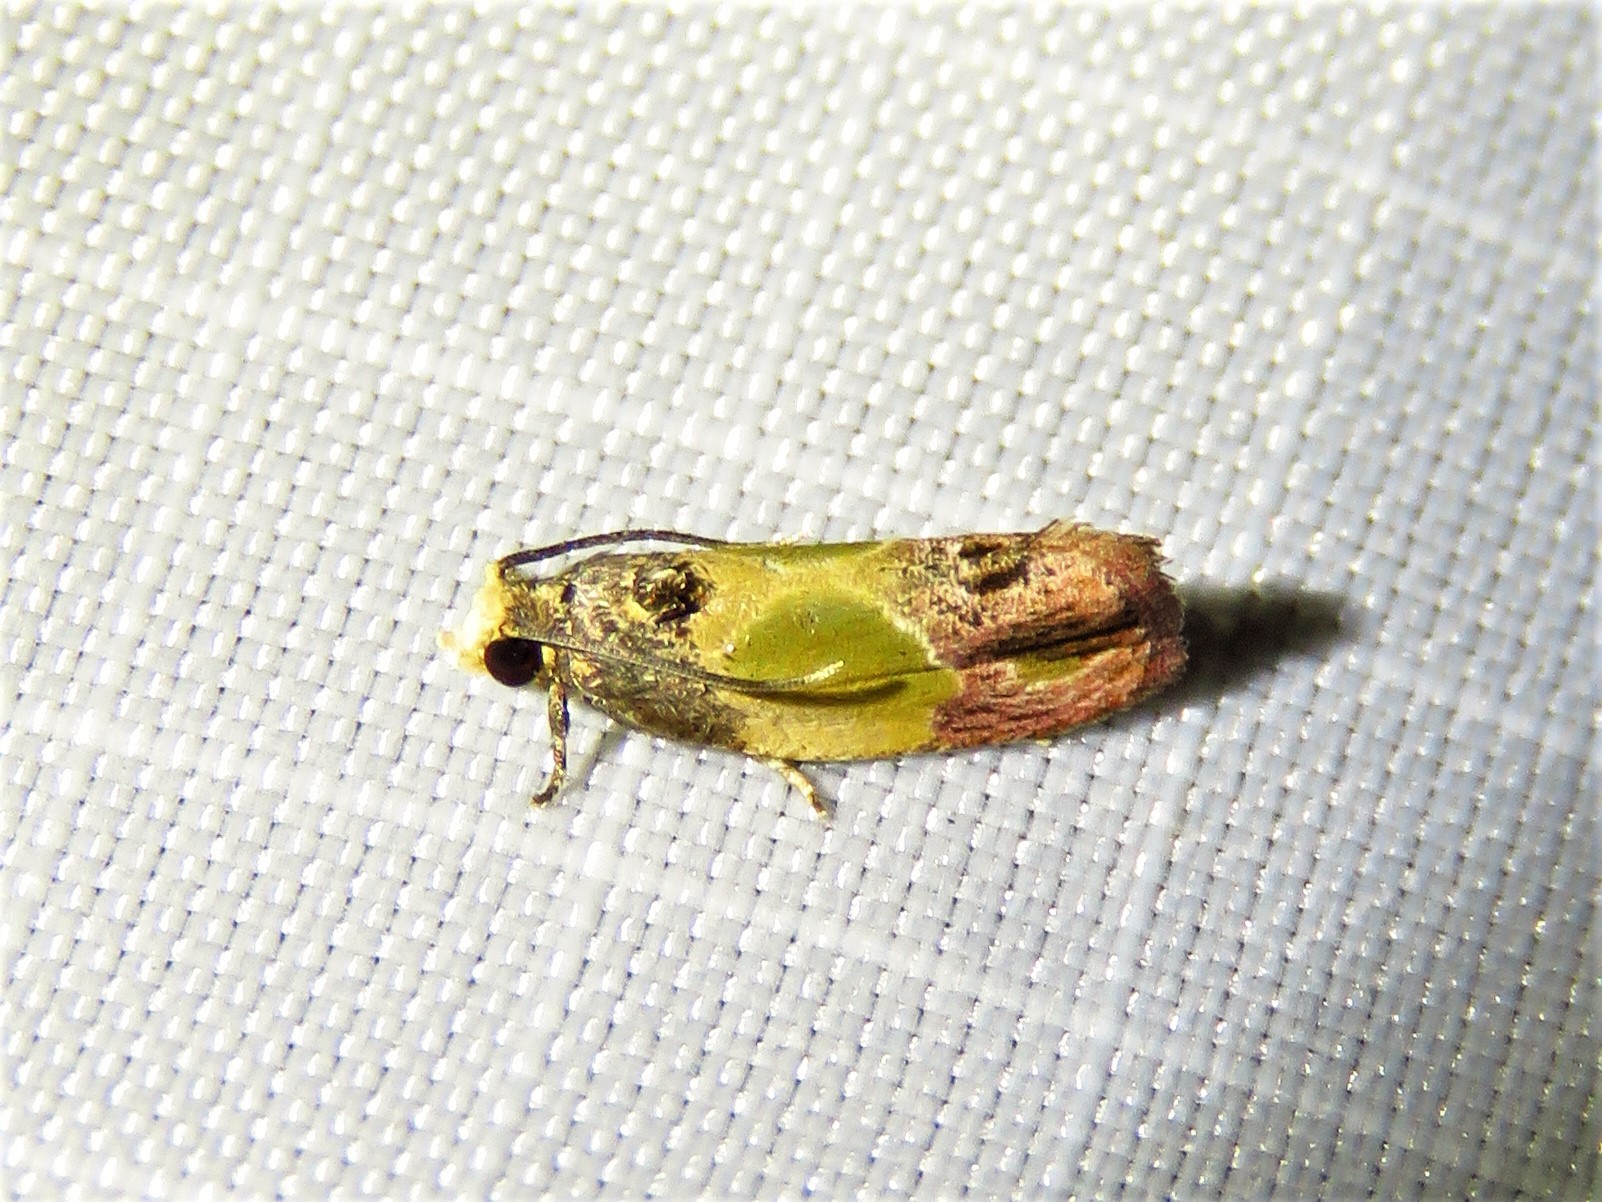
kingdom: Animalia
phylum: Arthropoda
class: Insecta
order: Lepidoptera
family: Tortricidae
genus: Eumarozia
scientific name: Eumarozia malachitana
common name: Sculptured moth
